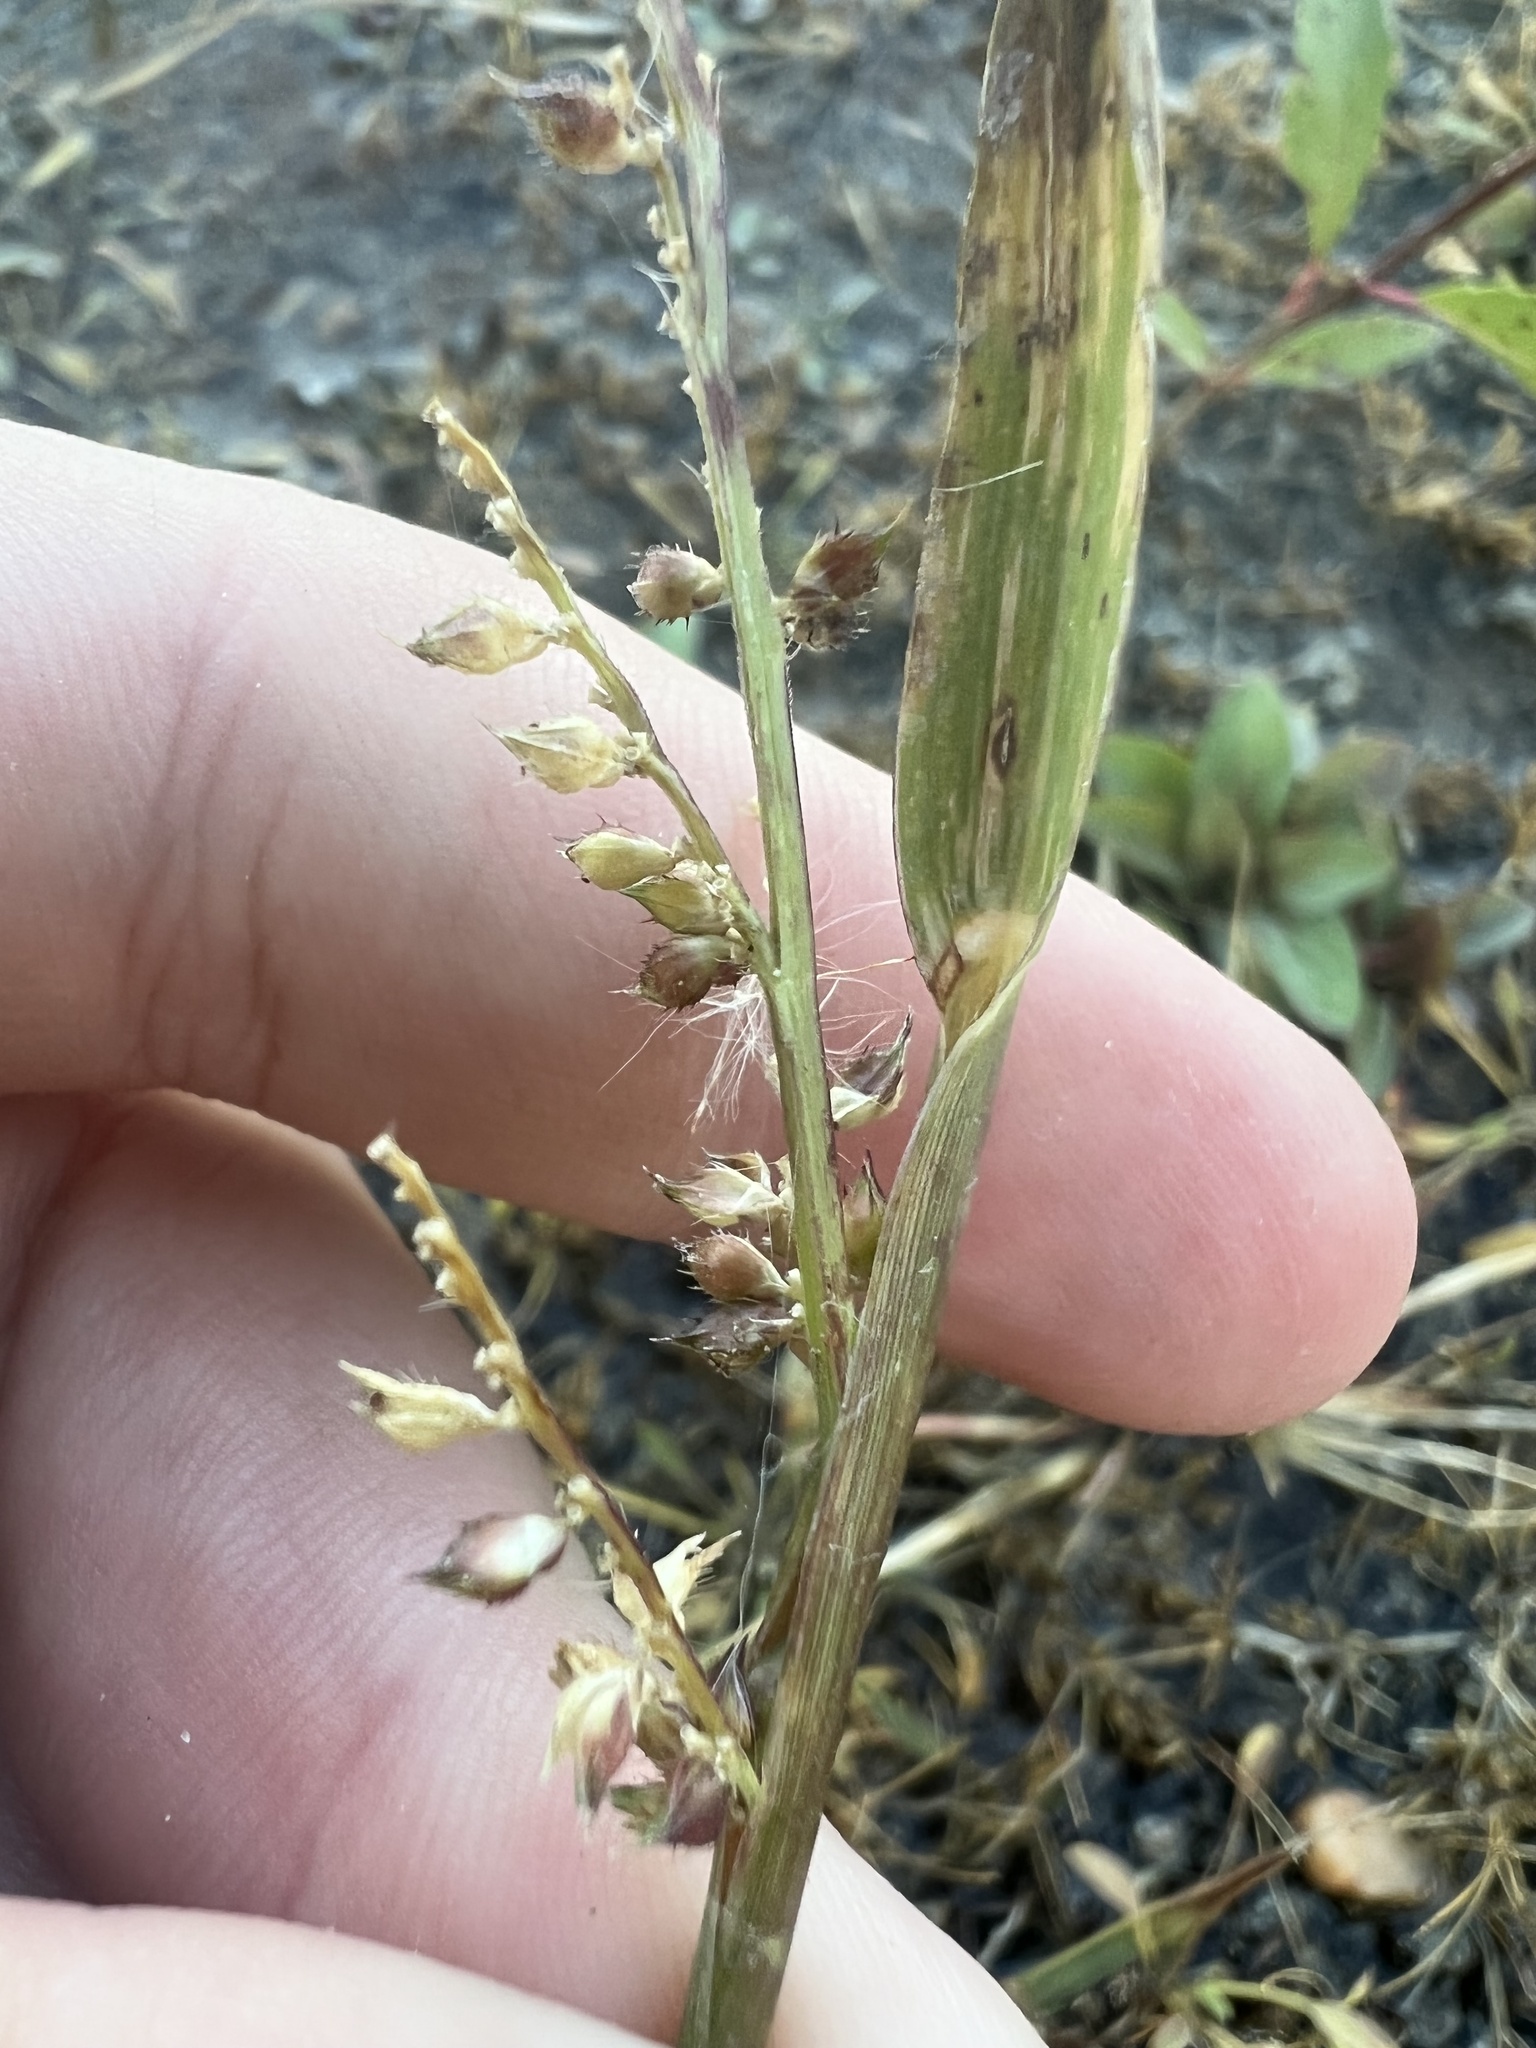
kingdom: Plantae
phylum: Tracheophyta
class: Liliopsida
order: Poales
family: Poaceae
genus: Echinochloa
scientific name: Echinochloa crus-galli
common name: Cockspur
